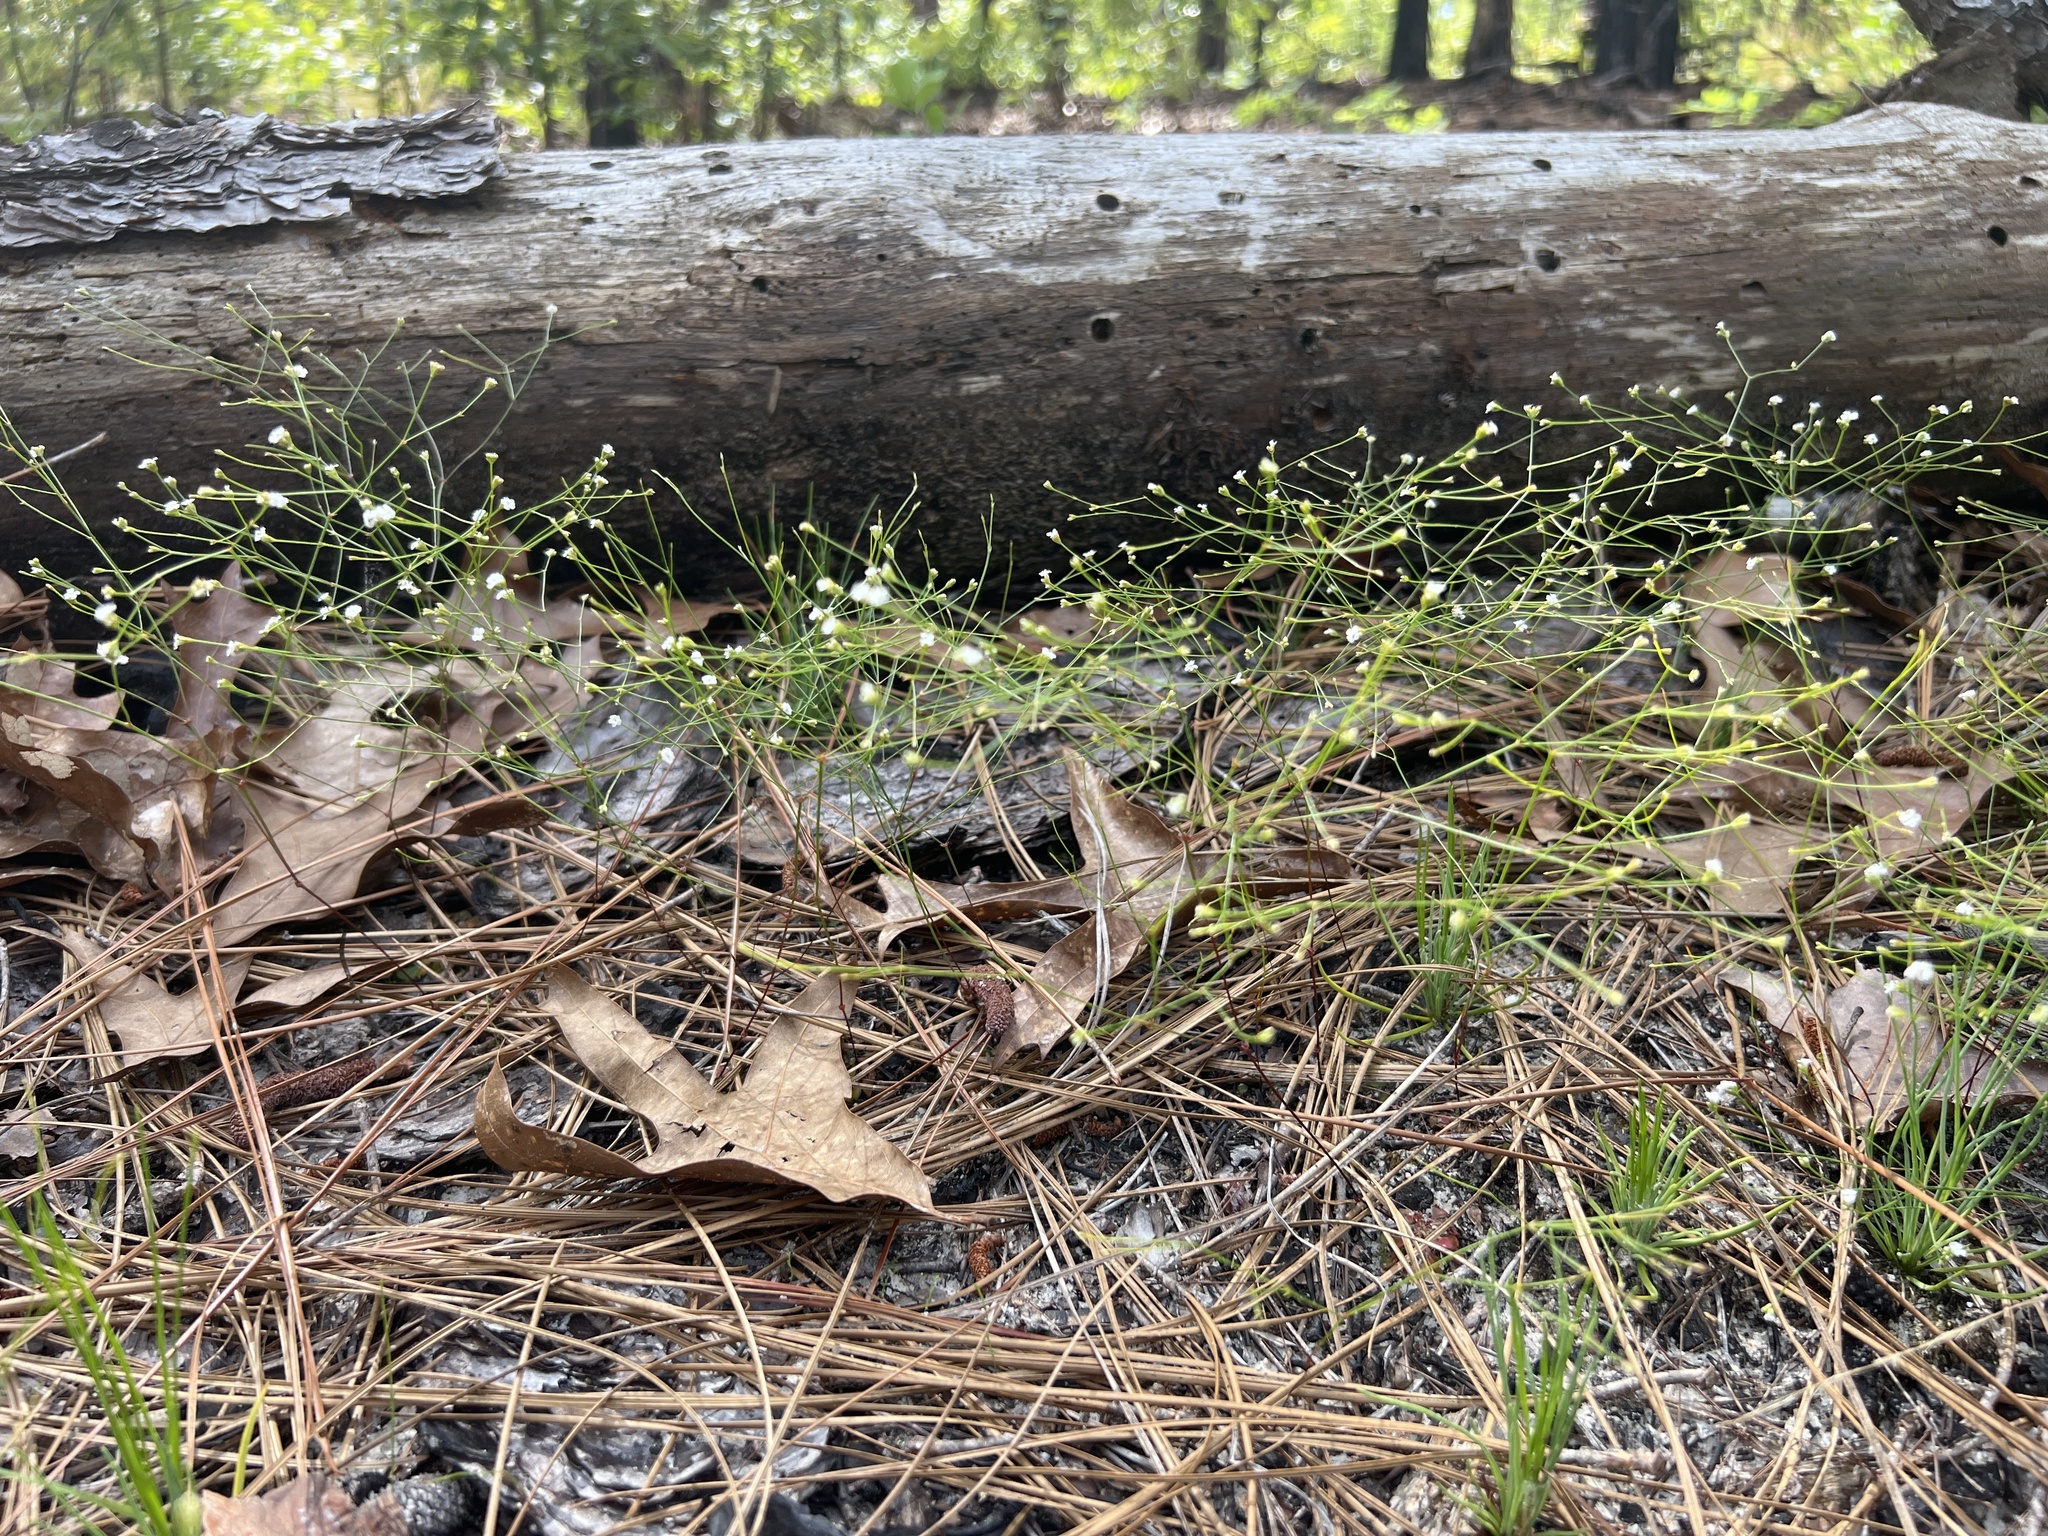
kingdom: Plantae
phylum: Tracheophyta
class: Magnoliopsida
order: Caryophyllales
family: Caryophyllaceae
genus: Stipulicida
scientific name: Stipulicida setacea
